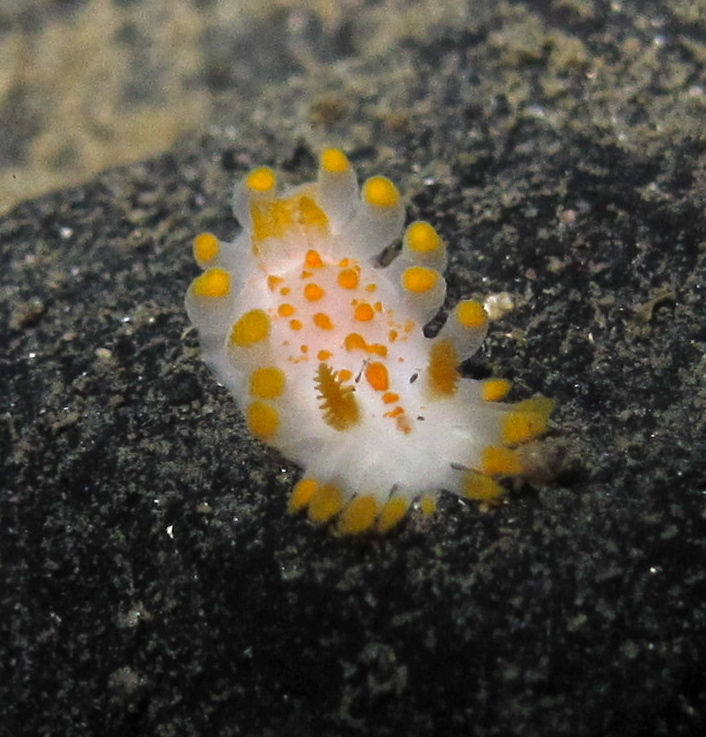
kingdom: Animalia
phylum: Mollusca
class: Gastropoda
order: Nudibranchia
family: Polyceridae
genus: Limacia
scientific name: Limacia clavigera
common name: Orange-clubbed sea slug
